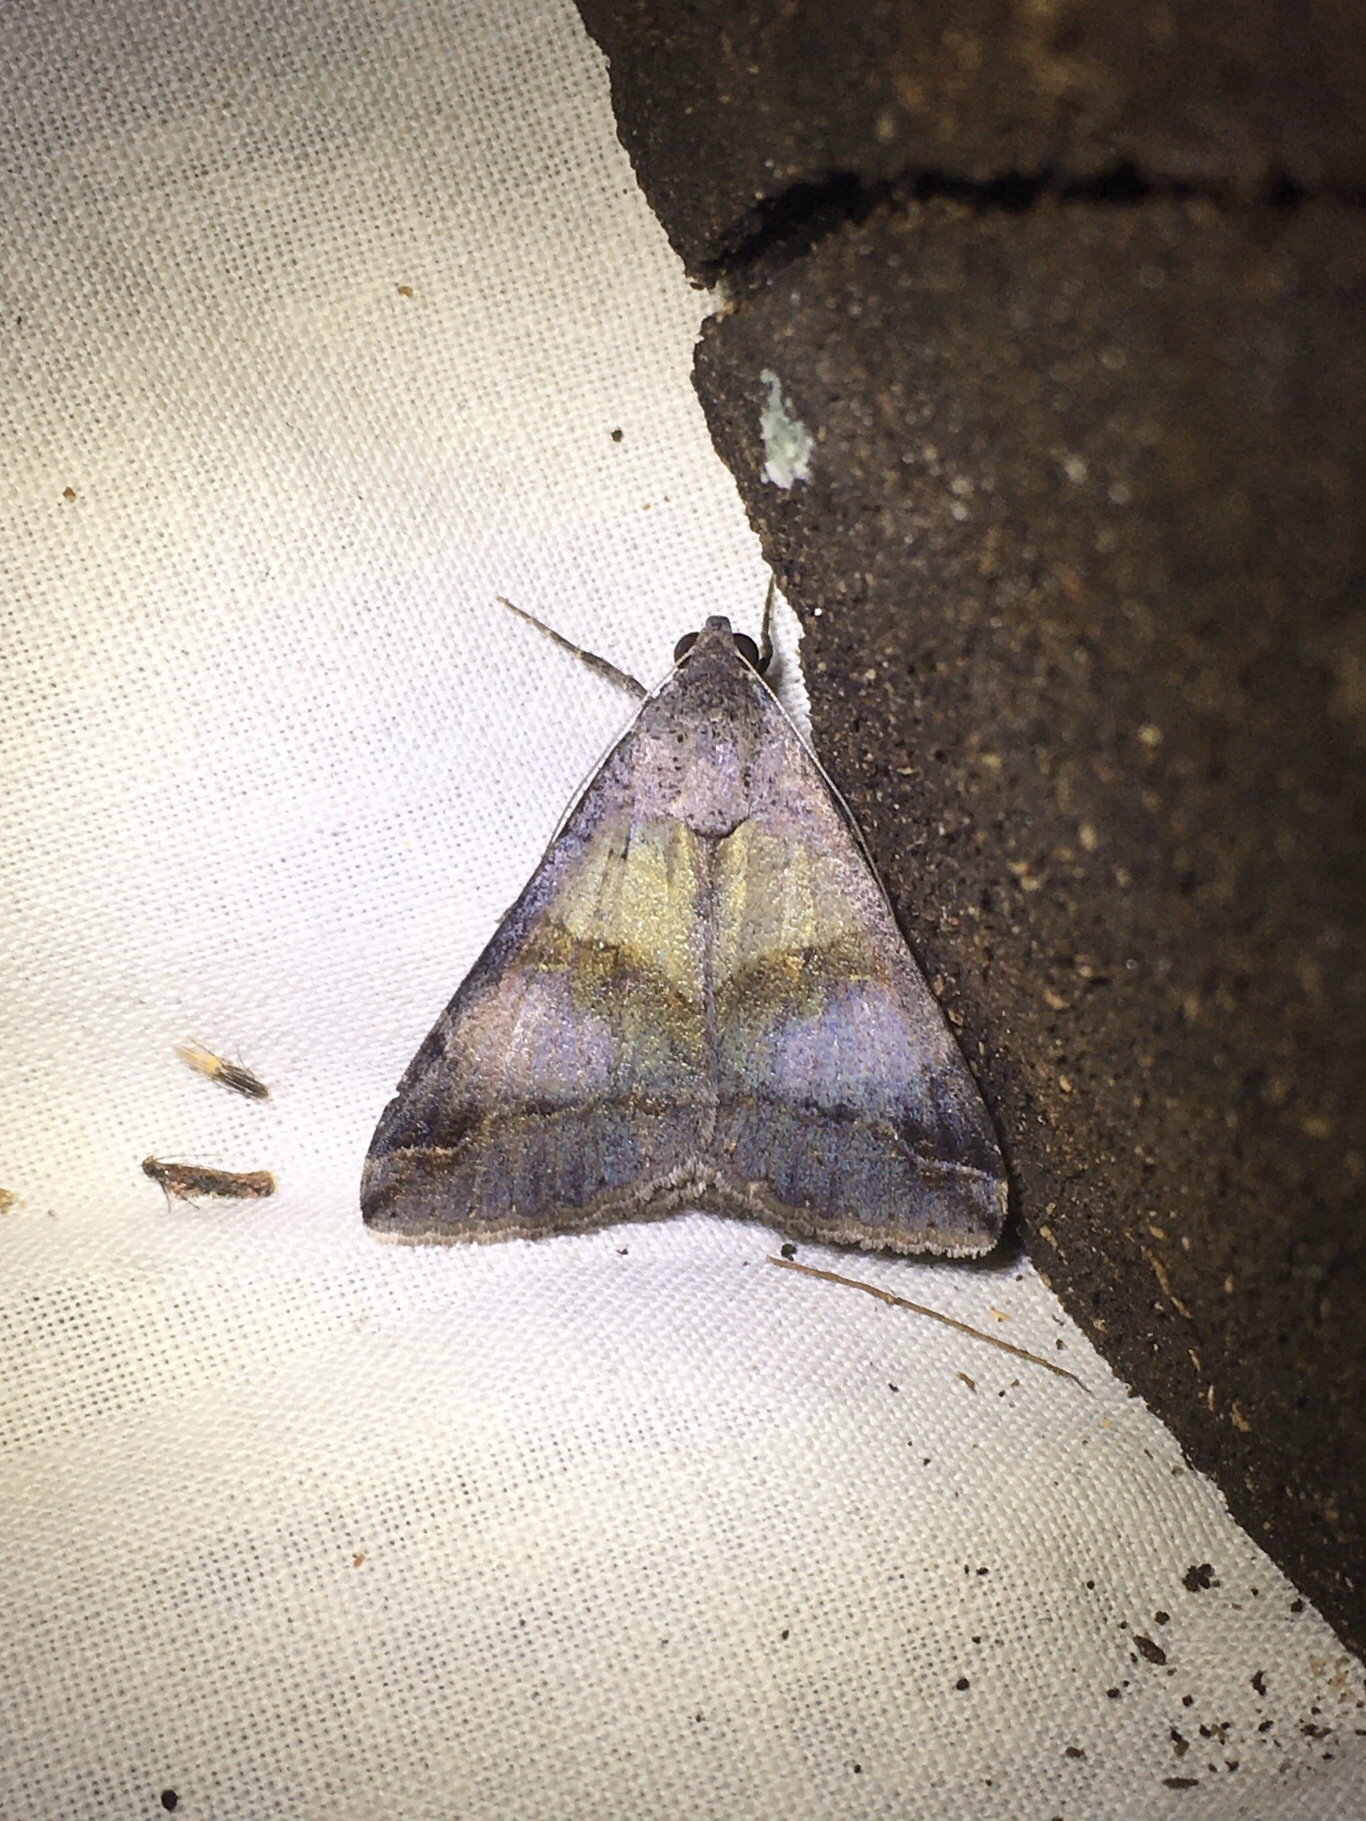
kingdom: Animalia
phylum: Arthropoda
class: Insecta
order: Lepidoptera
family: Erebidae
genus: Melipotis
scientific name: Melipotis florida
